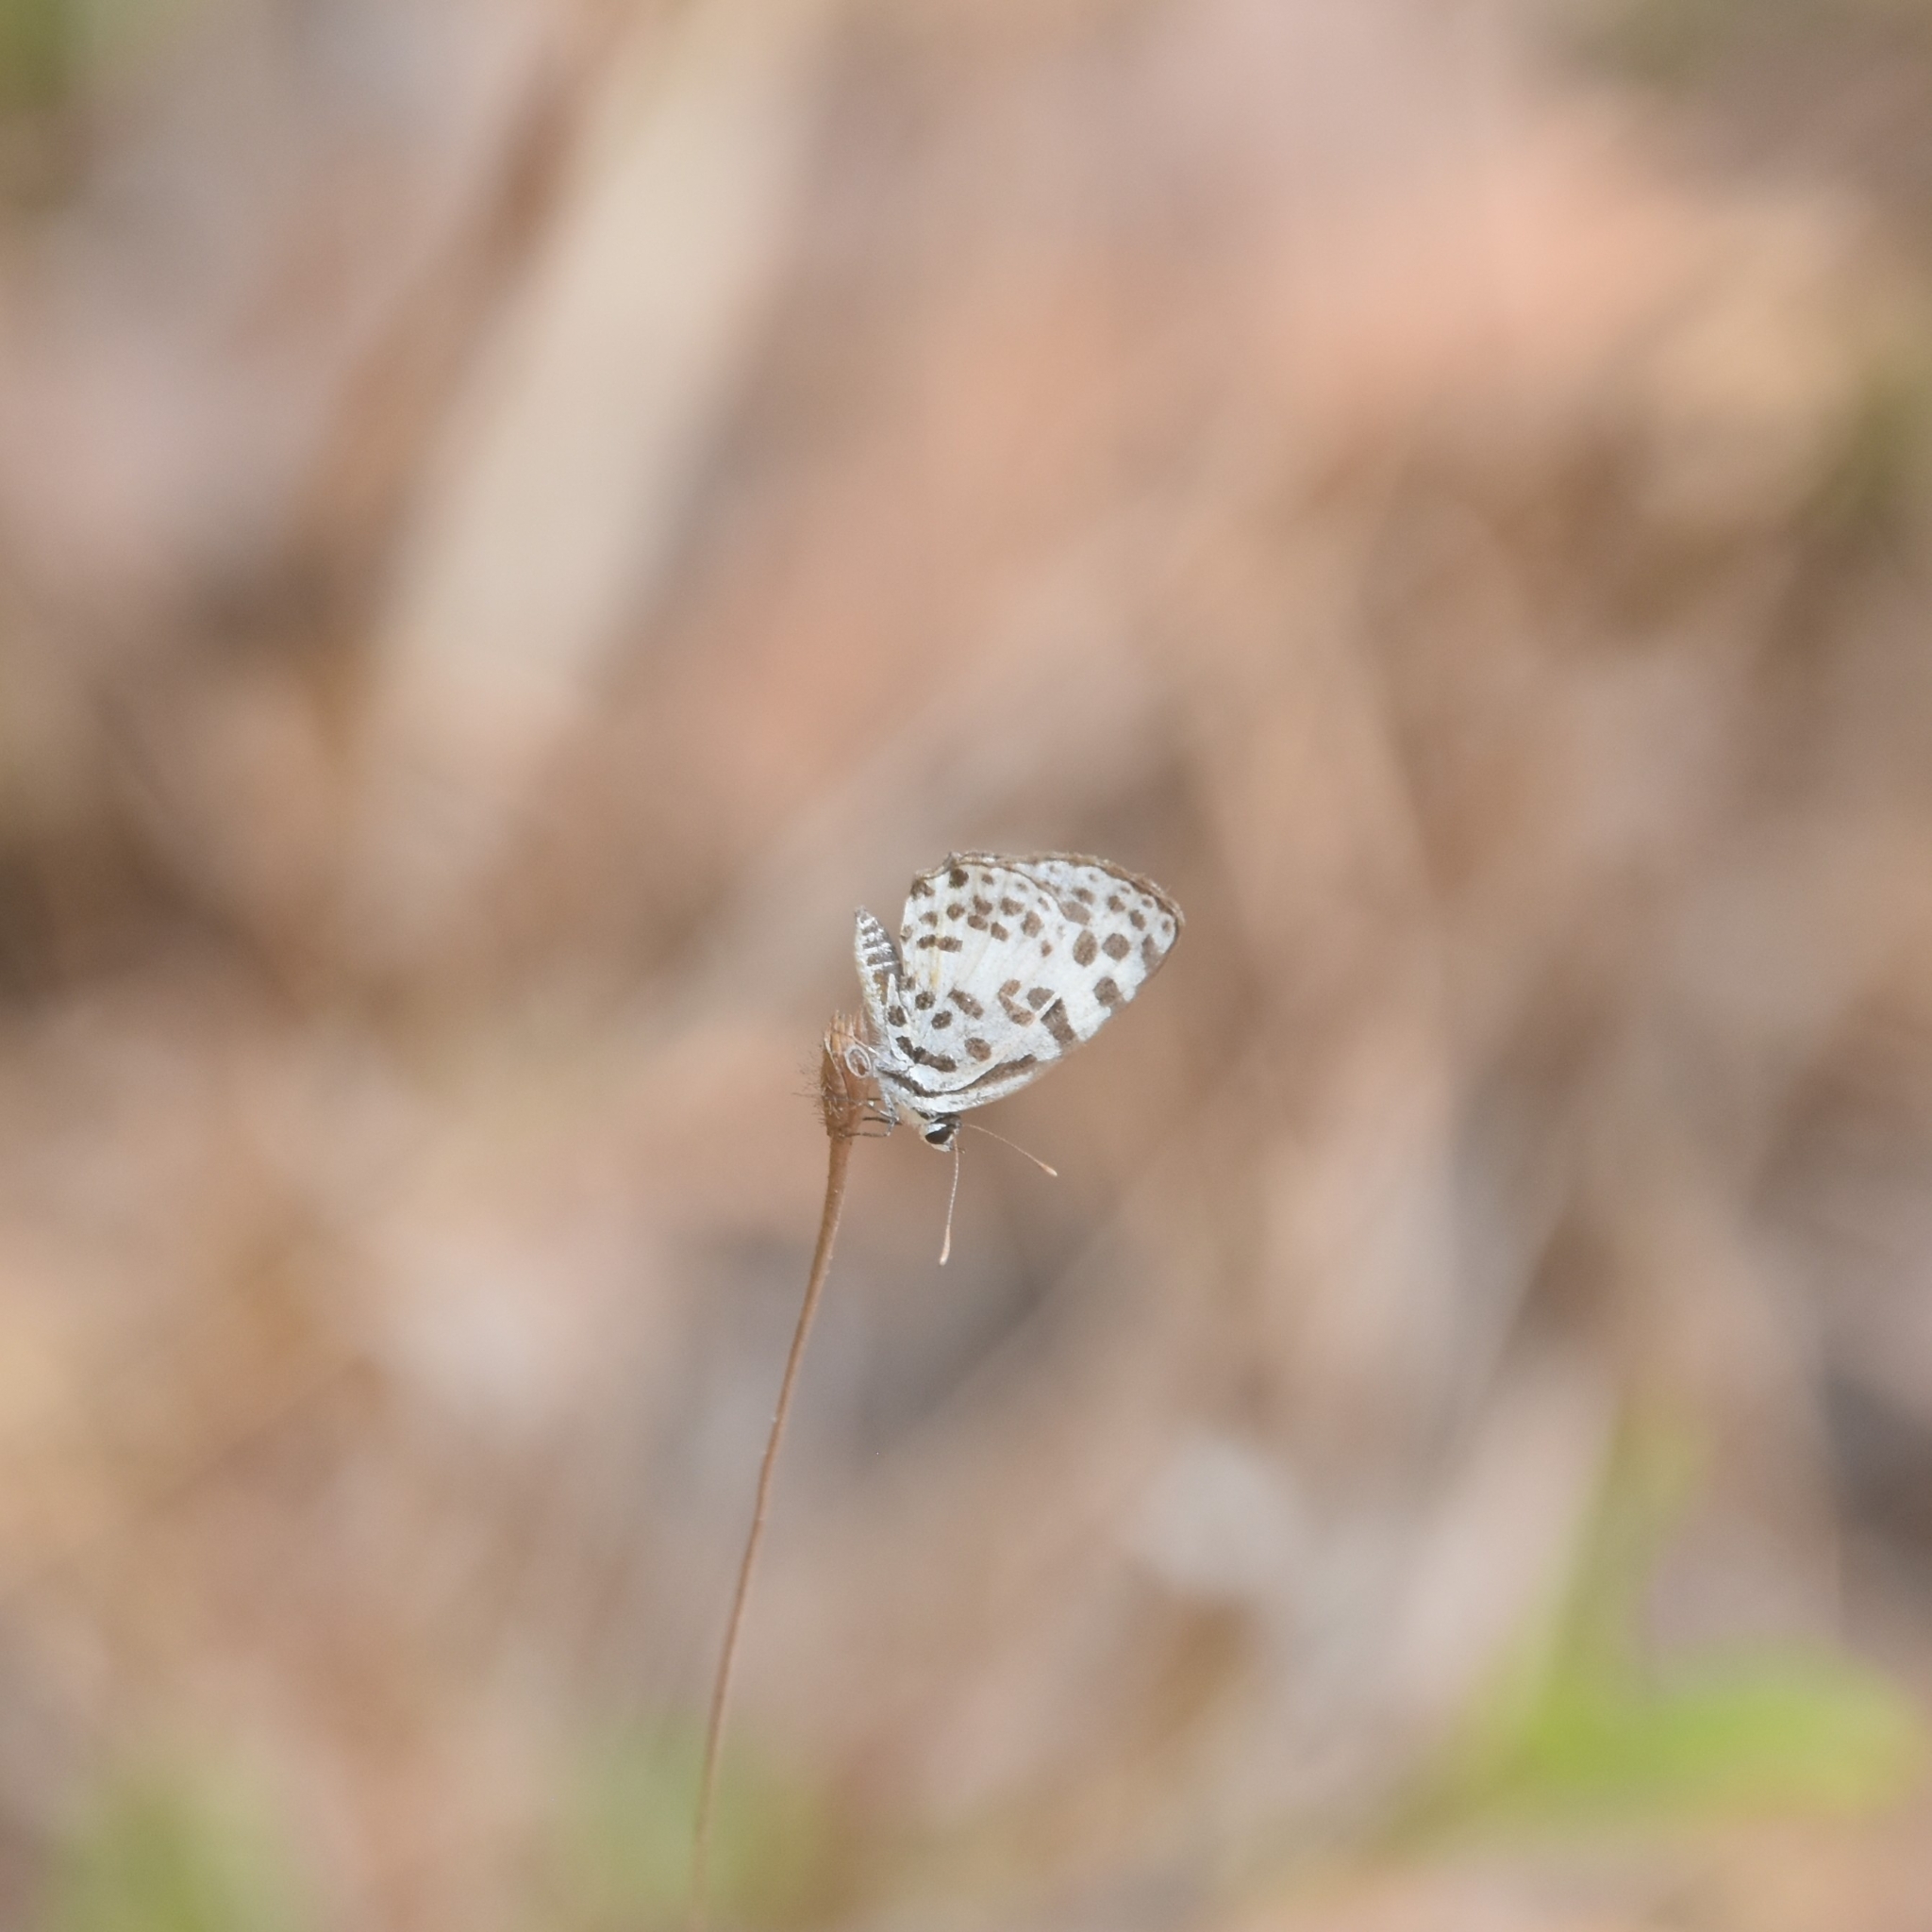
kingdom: Animalia
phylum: Arthropoda
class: Insecta
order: Lepidoptera
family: Lycaenidae
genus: Castalius
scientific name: Castalius rosimon
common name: Common pierrot
